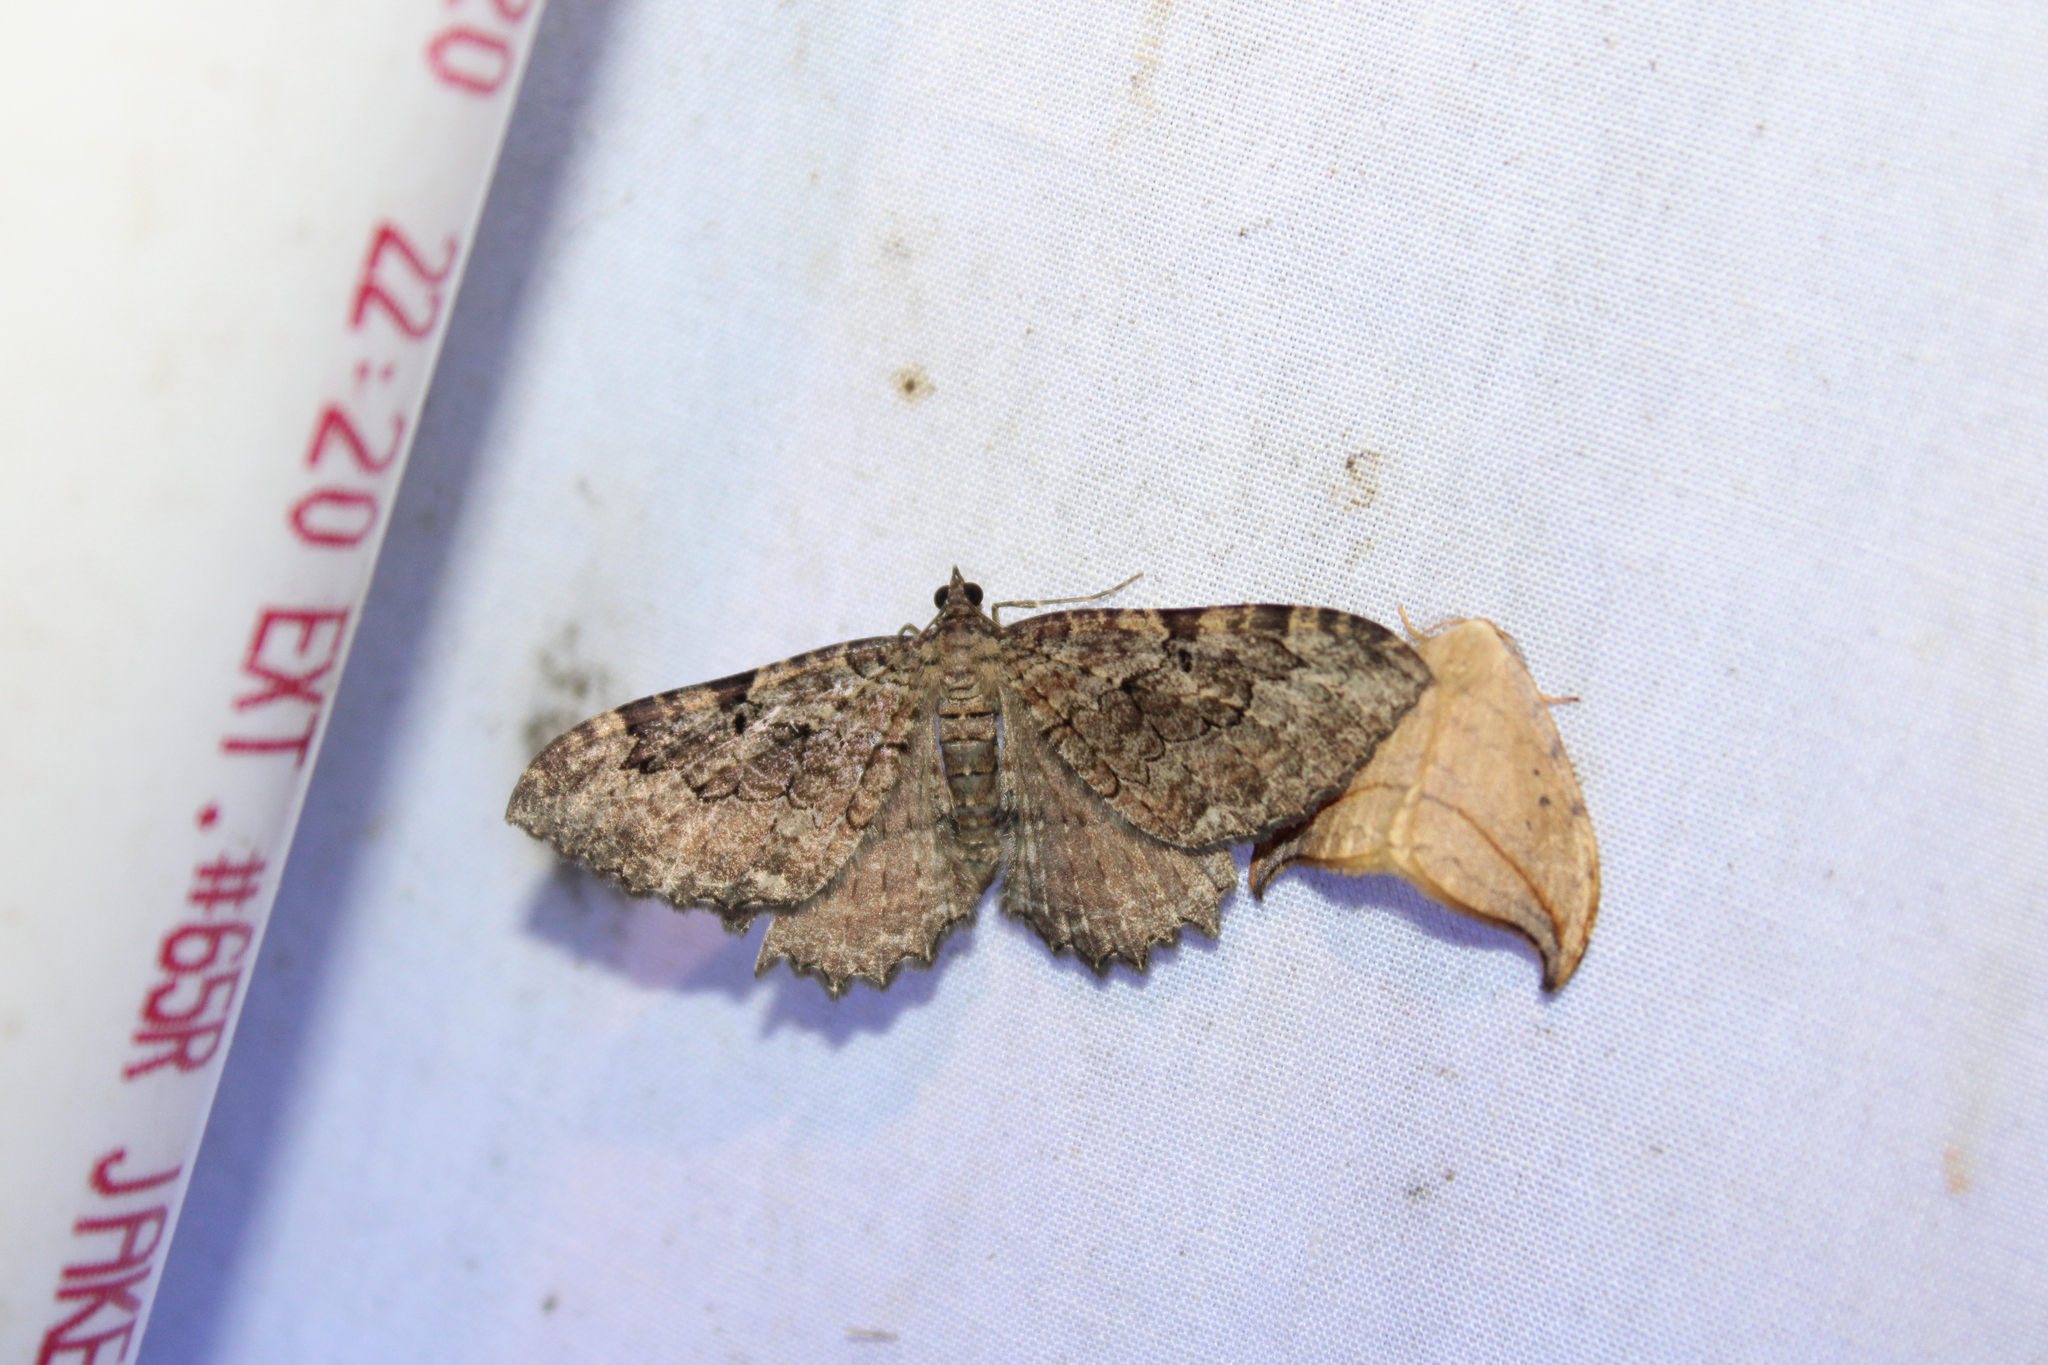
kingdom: Animalia
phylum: Arthropoda
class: Insecta
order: Lepidoptera
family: Geometridae
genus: Rheumaptera
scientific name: Rheumaptera
